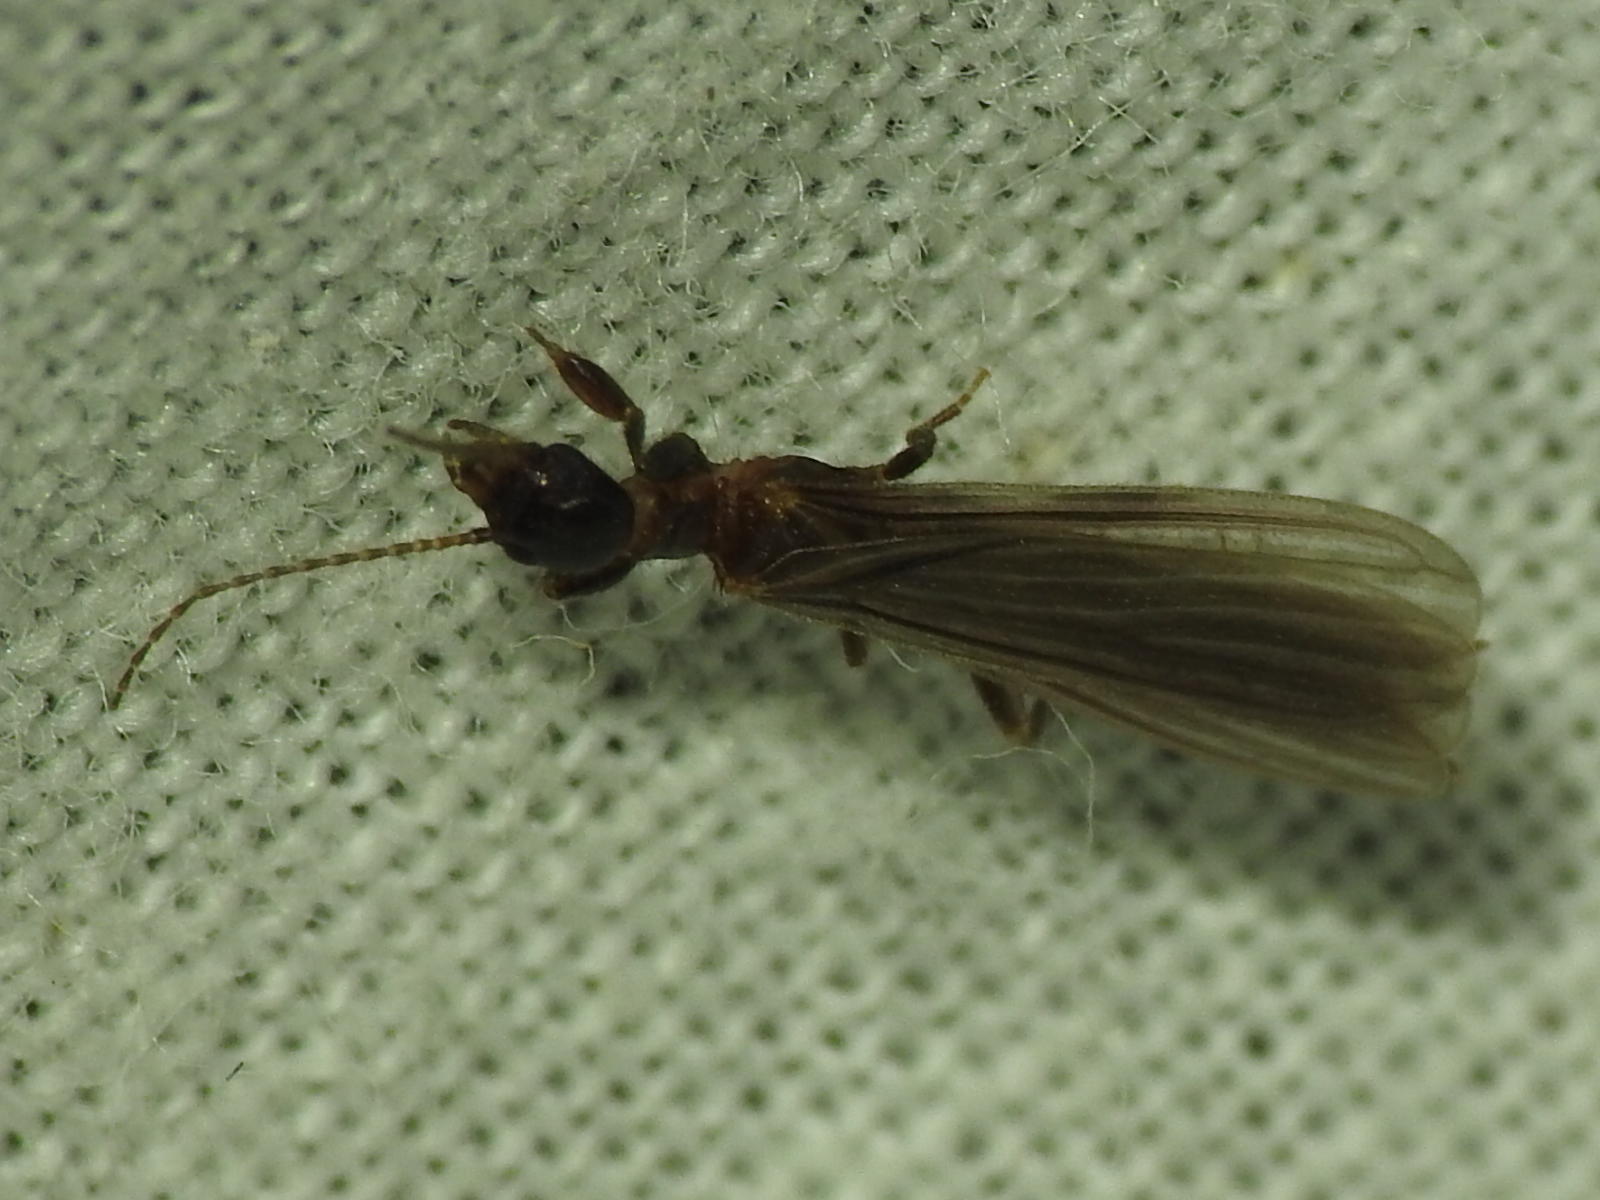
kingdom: Animalia
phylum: Arthropoda
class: Insecta
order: Embioptera
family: Oligotomidae
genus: Oligotoma
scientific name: Oligotoma nigra
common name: Black webspinner
